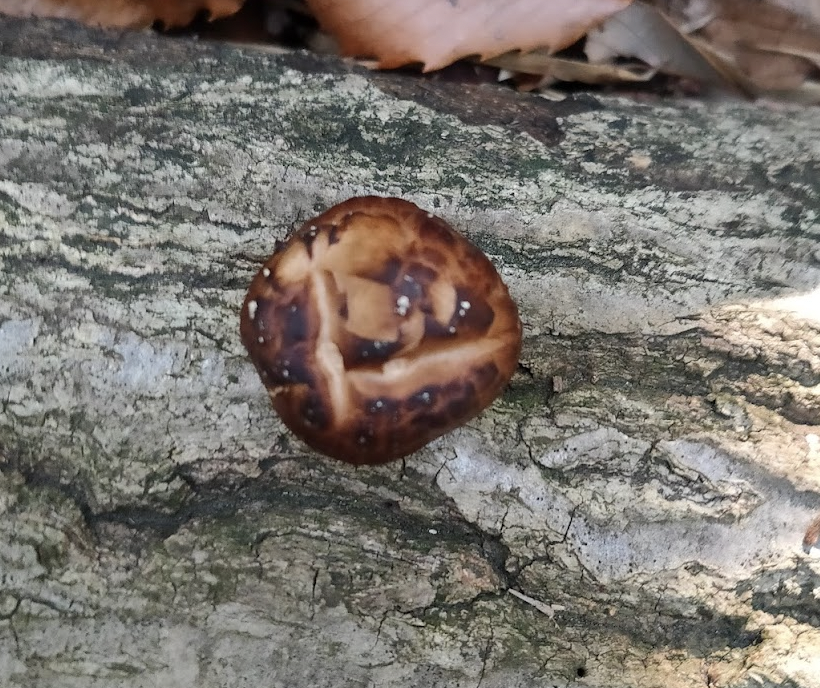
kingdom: Fungi
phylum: Basidiomycota
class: Agaricomycetes
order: Agaricales
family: Omphalotaceae
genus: Lentinula
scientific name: Lentinula edodes
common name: Shiitake
